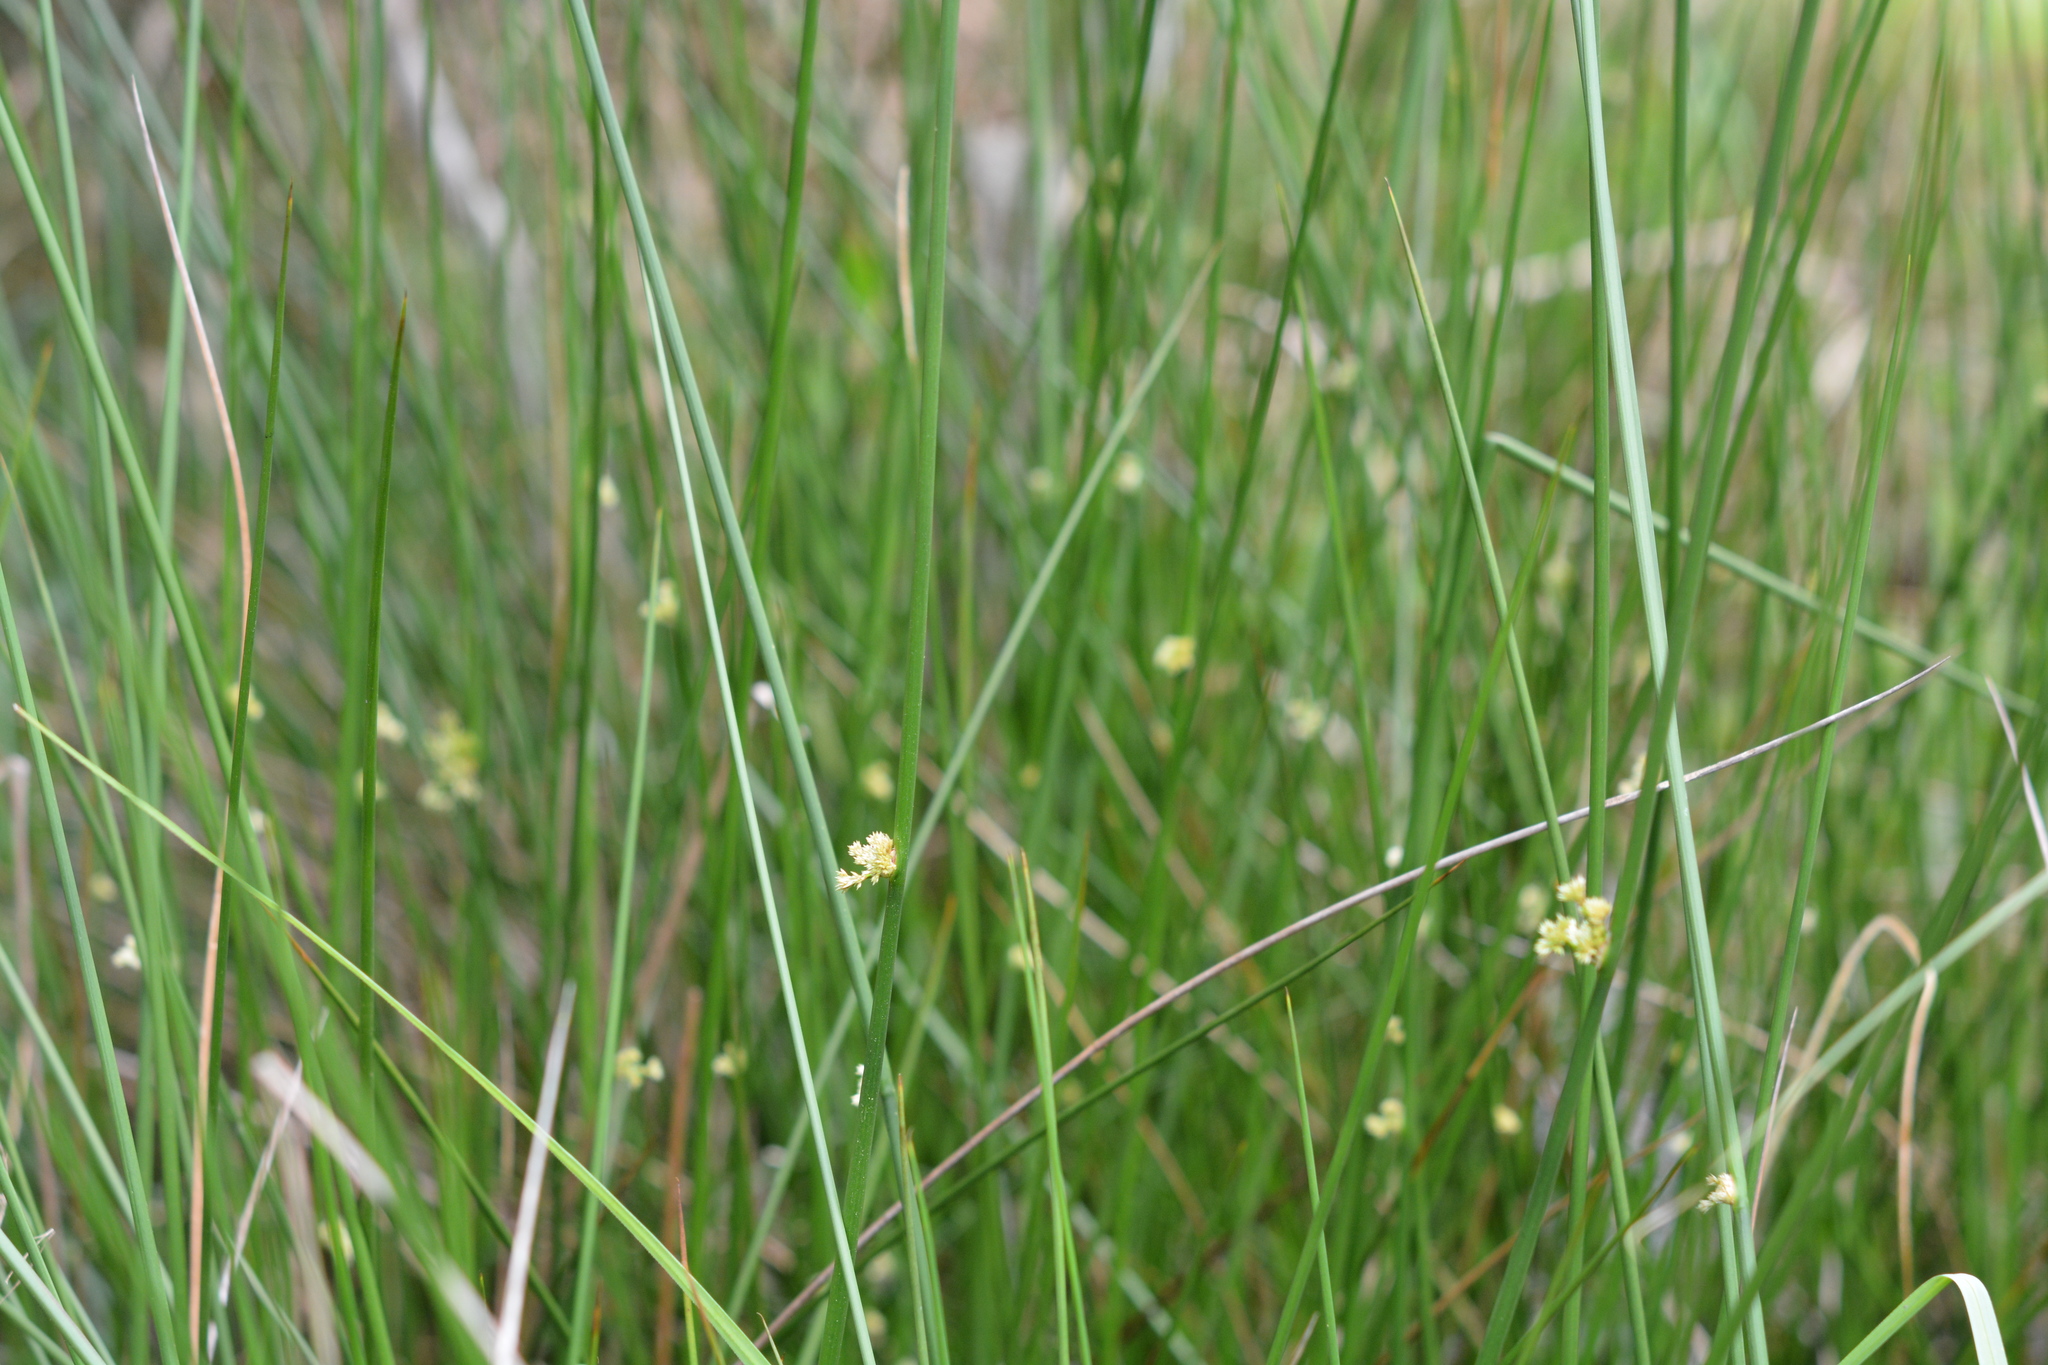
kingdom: Plantae
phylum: Tracheophyta
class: Liliopsida
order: Poales
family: Juncaceae
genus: Juncus
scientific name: Juncus effusus
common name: Soft rush
